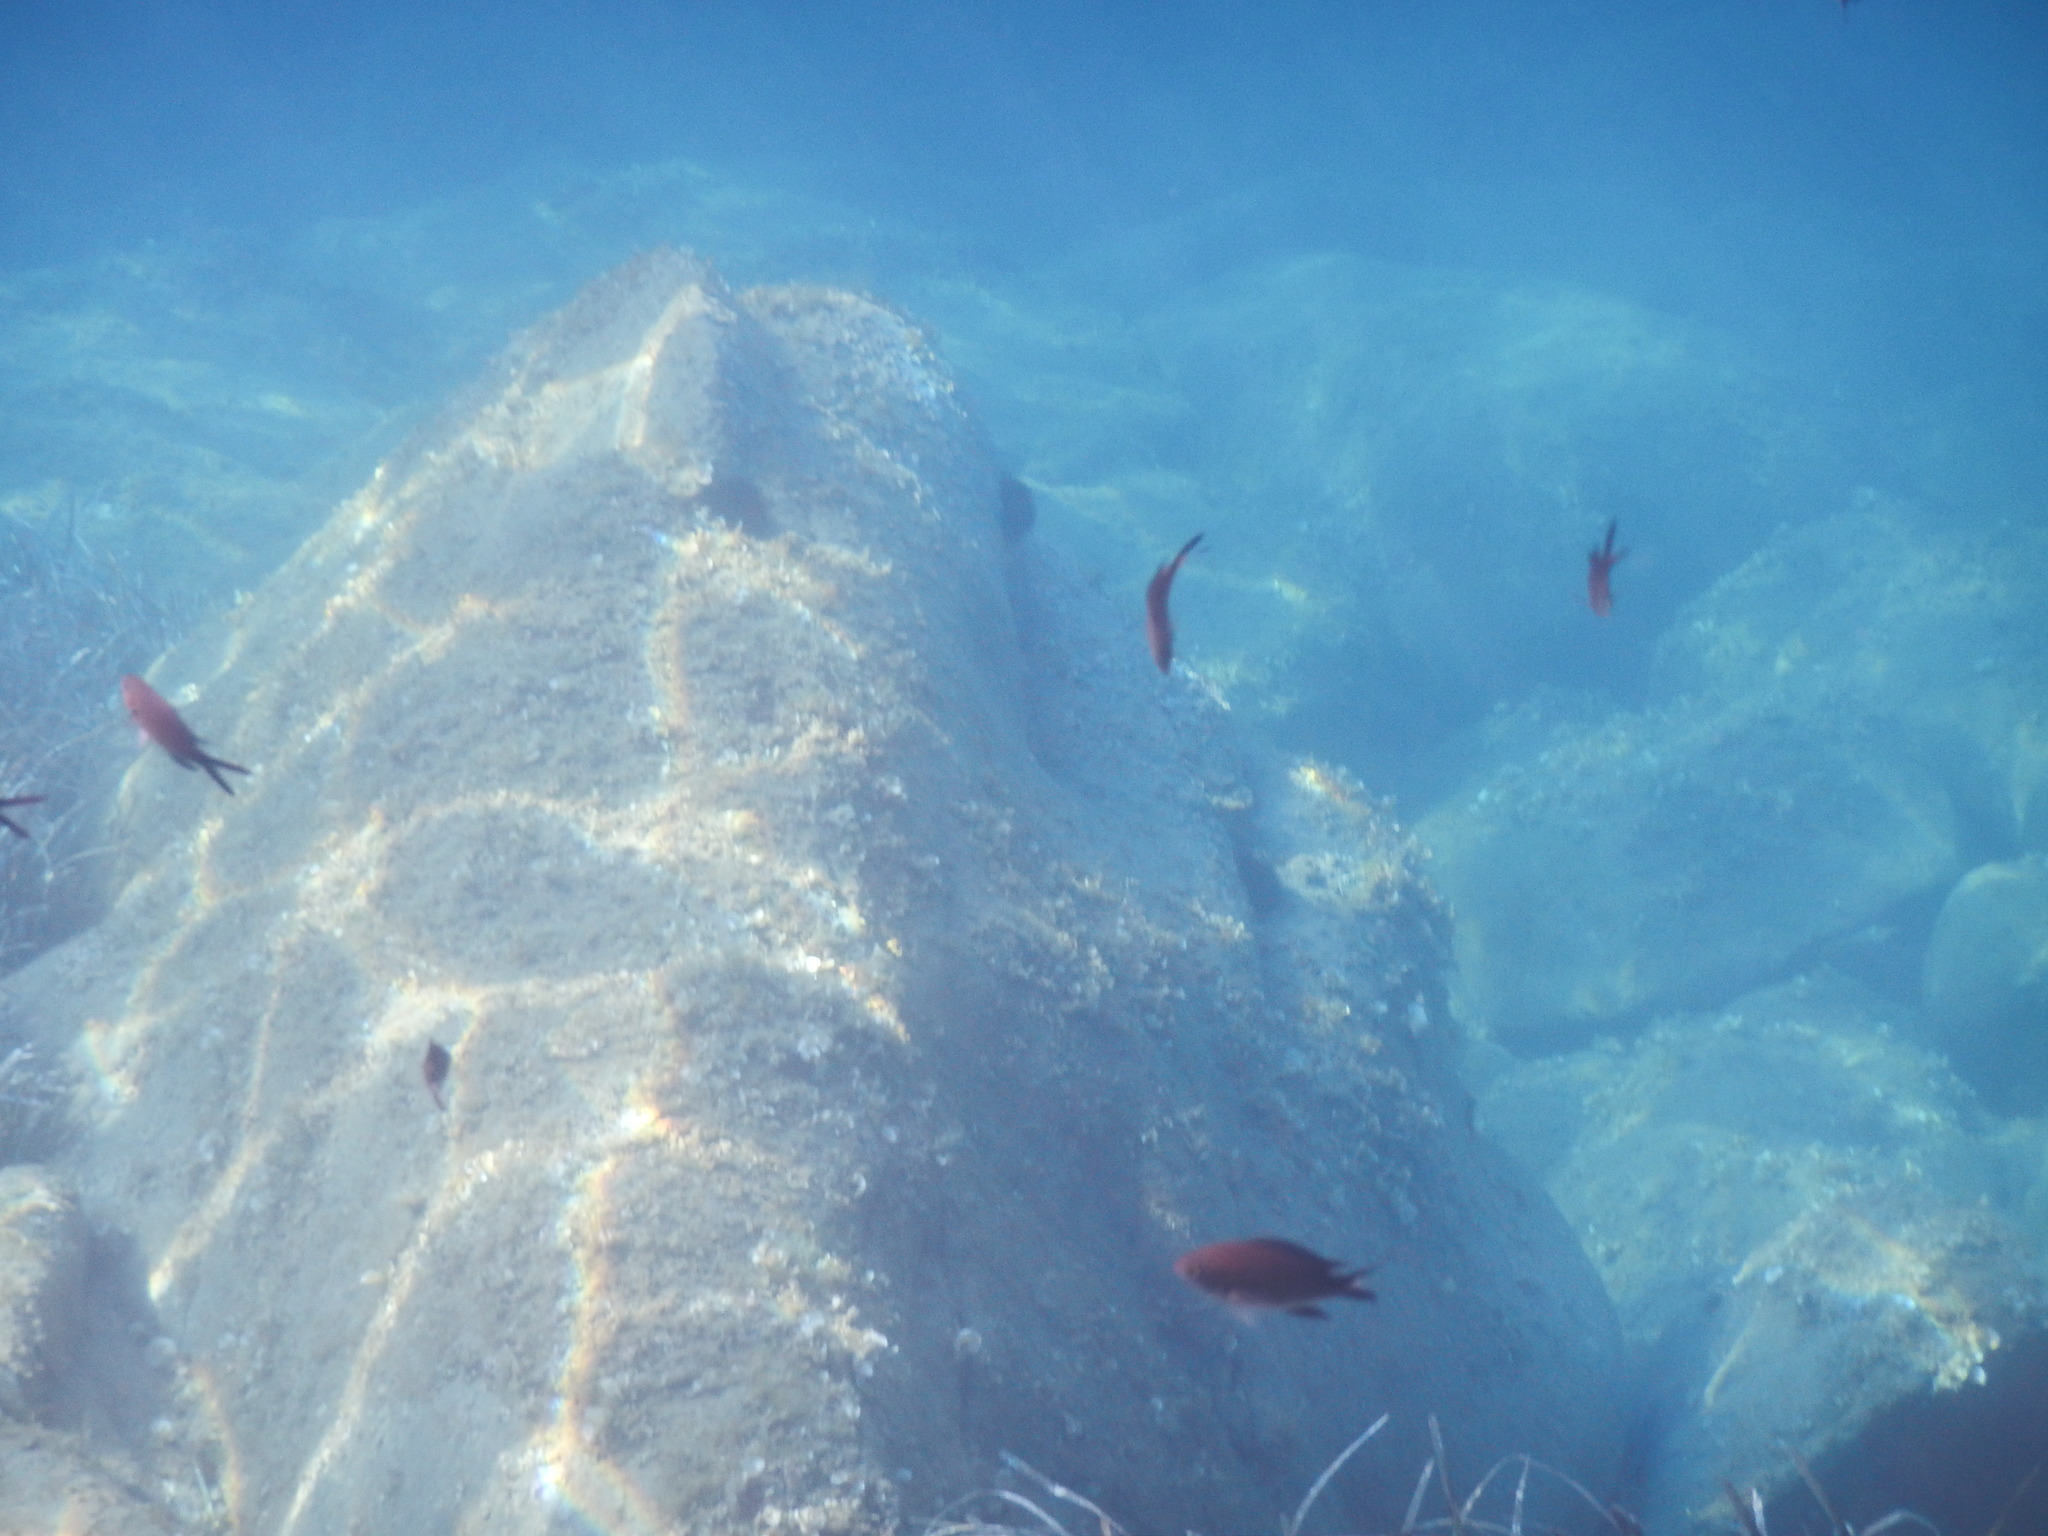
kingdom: Animalia
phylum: Chordata
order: Perciformes
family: Pomacentridae
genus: Chromis
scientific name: Chromis chromis
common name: Damselfish
